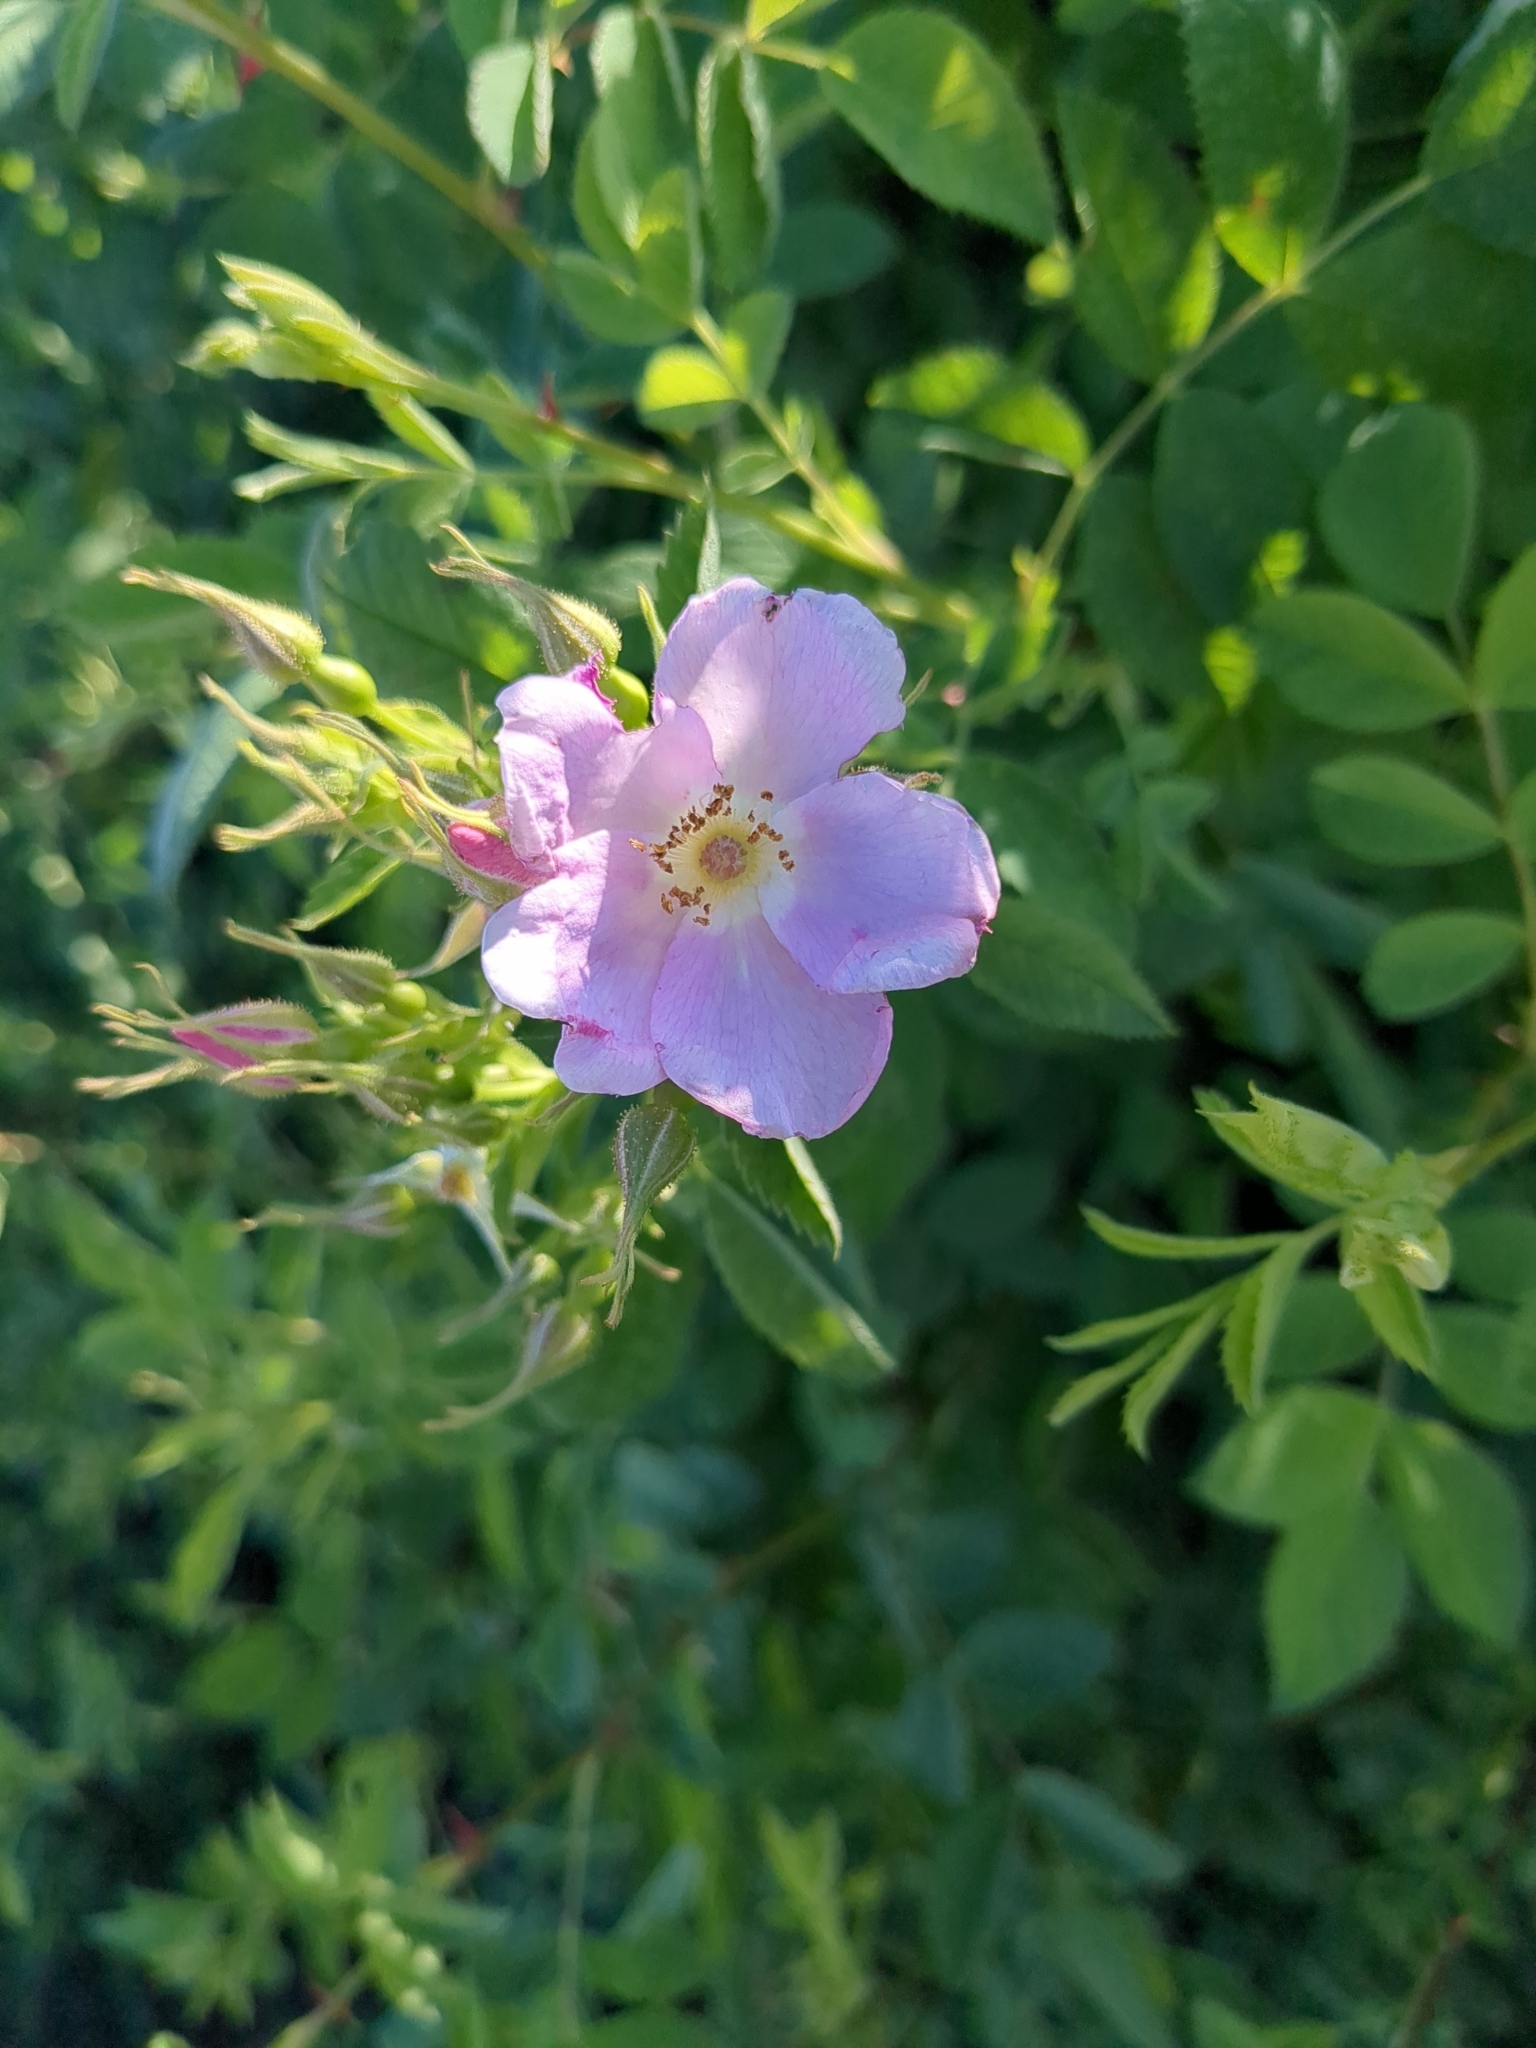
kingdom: Plantae
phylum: Tracheophyta
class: Magnoliopsida
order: Rosales
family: Rosaceae
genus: Rosa
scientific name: Rosa californica
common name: California rose
